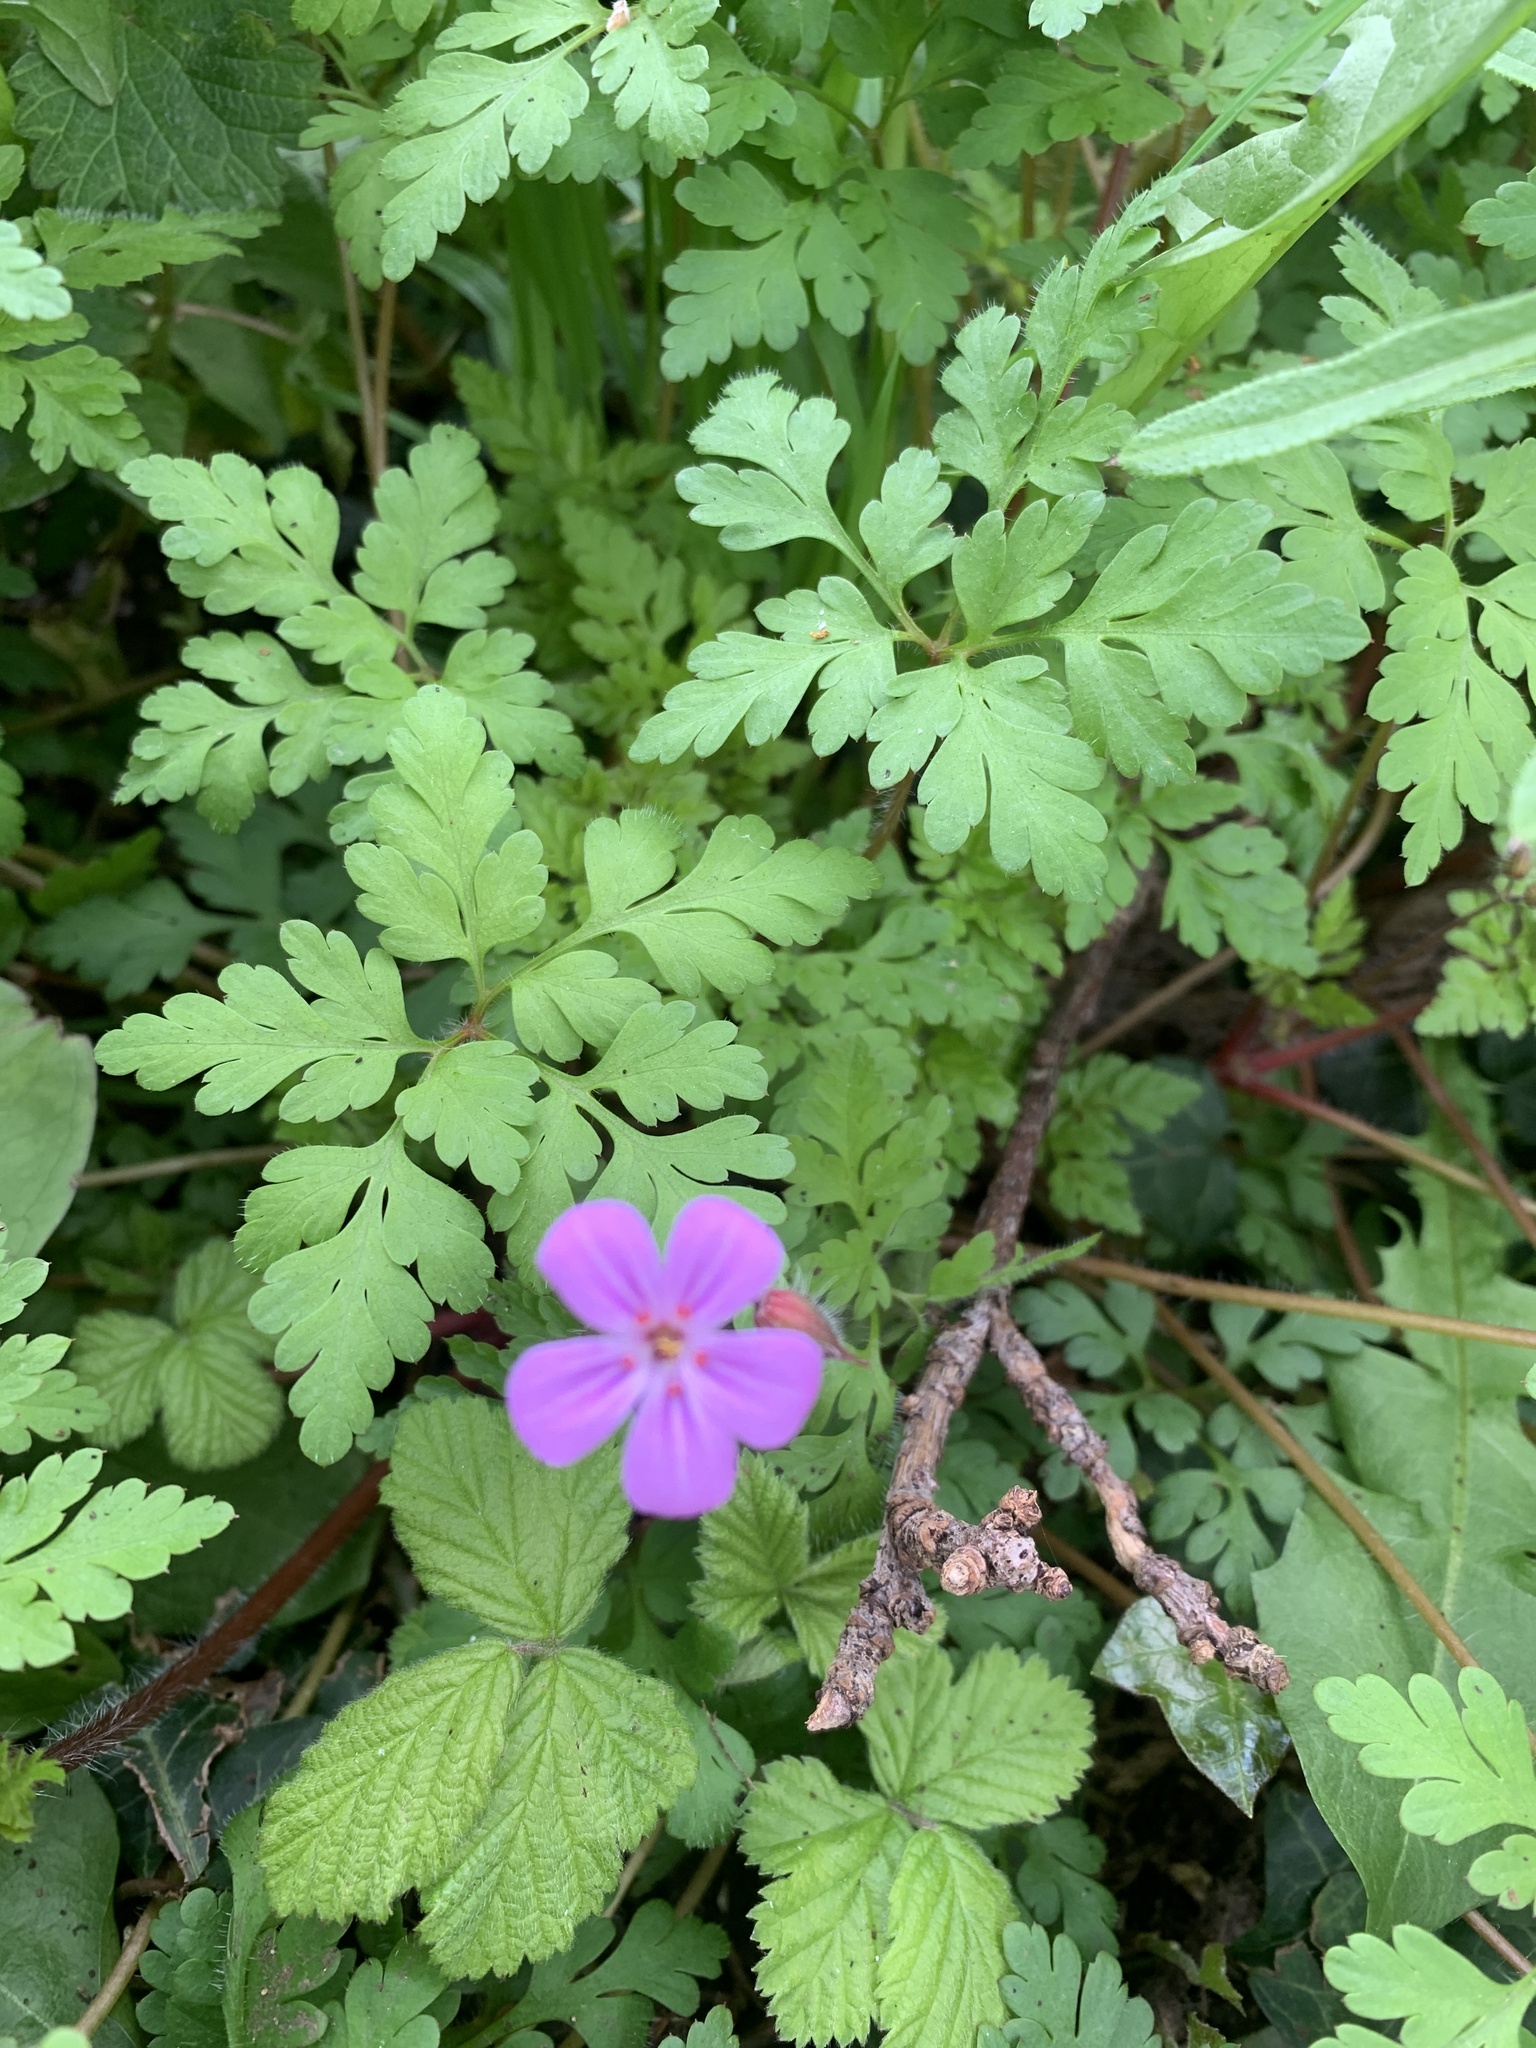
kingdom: Plantae
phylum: Tracheophyta
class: Magnoliopsida
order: Geraniales
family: Geraniaceae
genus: Geranium
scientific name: Geranium robertianum
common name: Herb-robert
